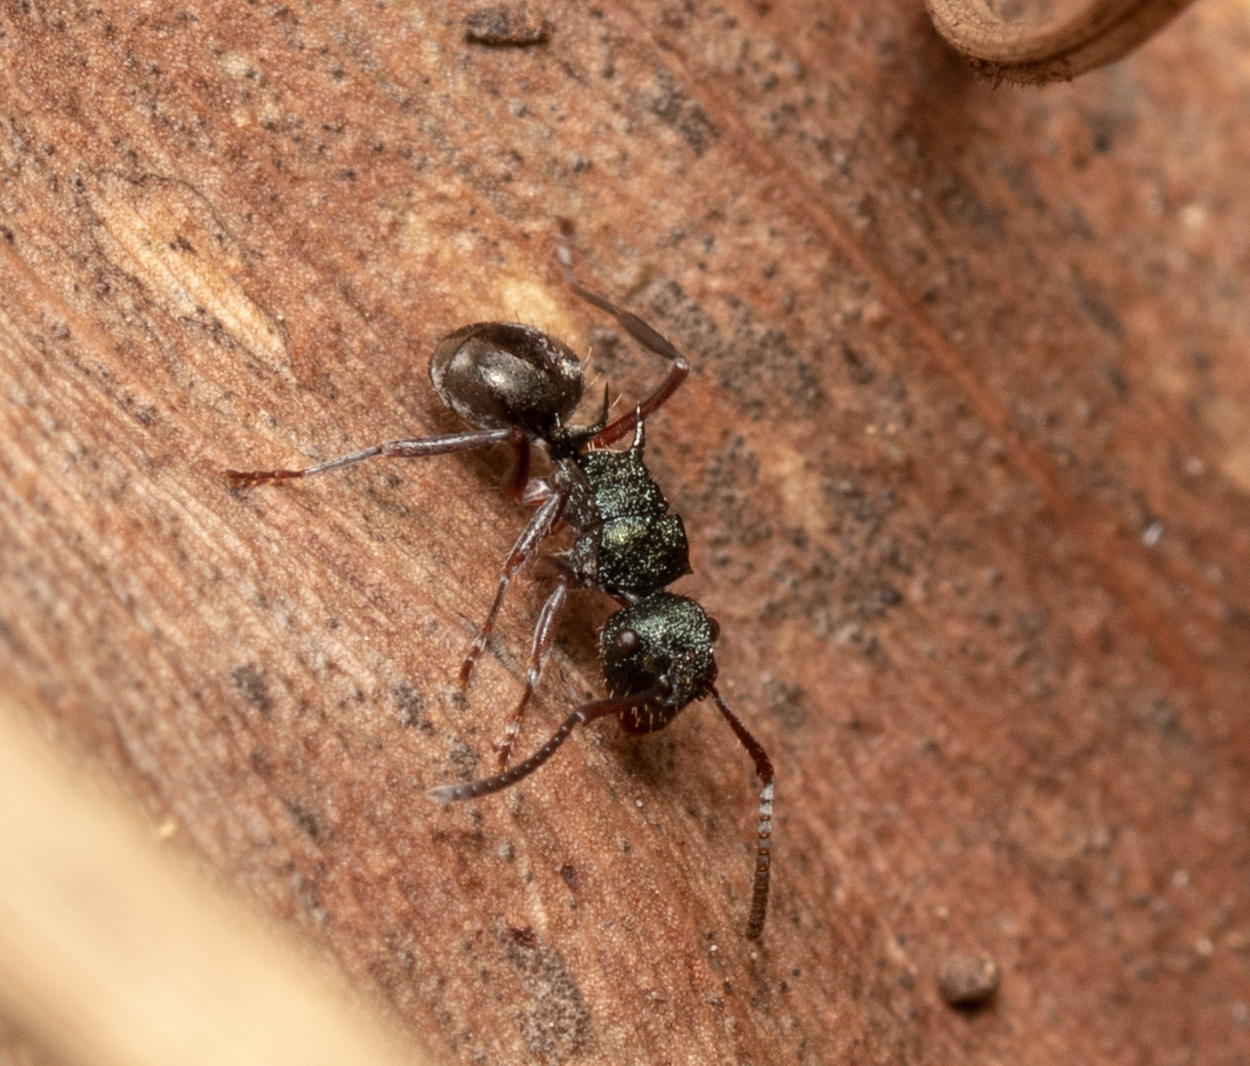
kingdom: Animalia
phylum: Arthropoda
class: Insecta
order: Hymenoptera
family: Formicidae
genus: Polyrhachis
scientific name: Polyrhachis hookeri
